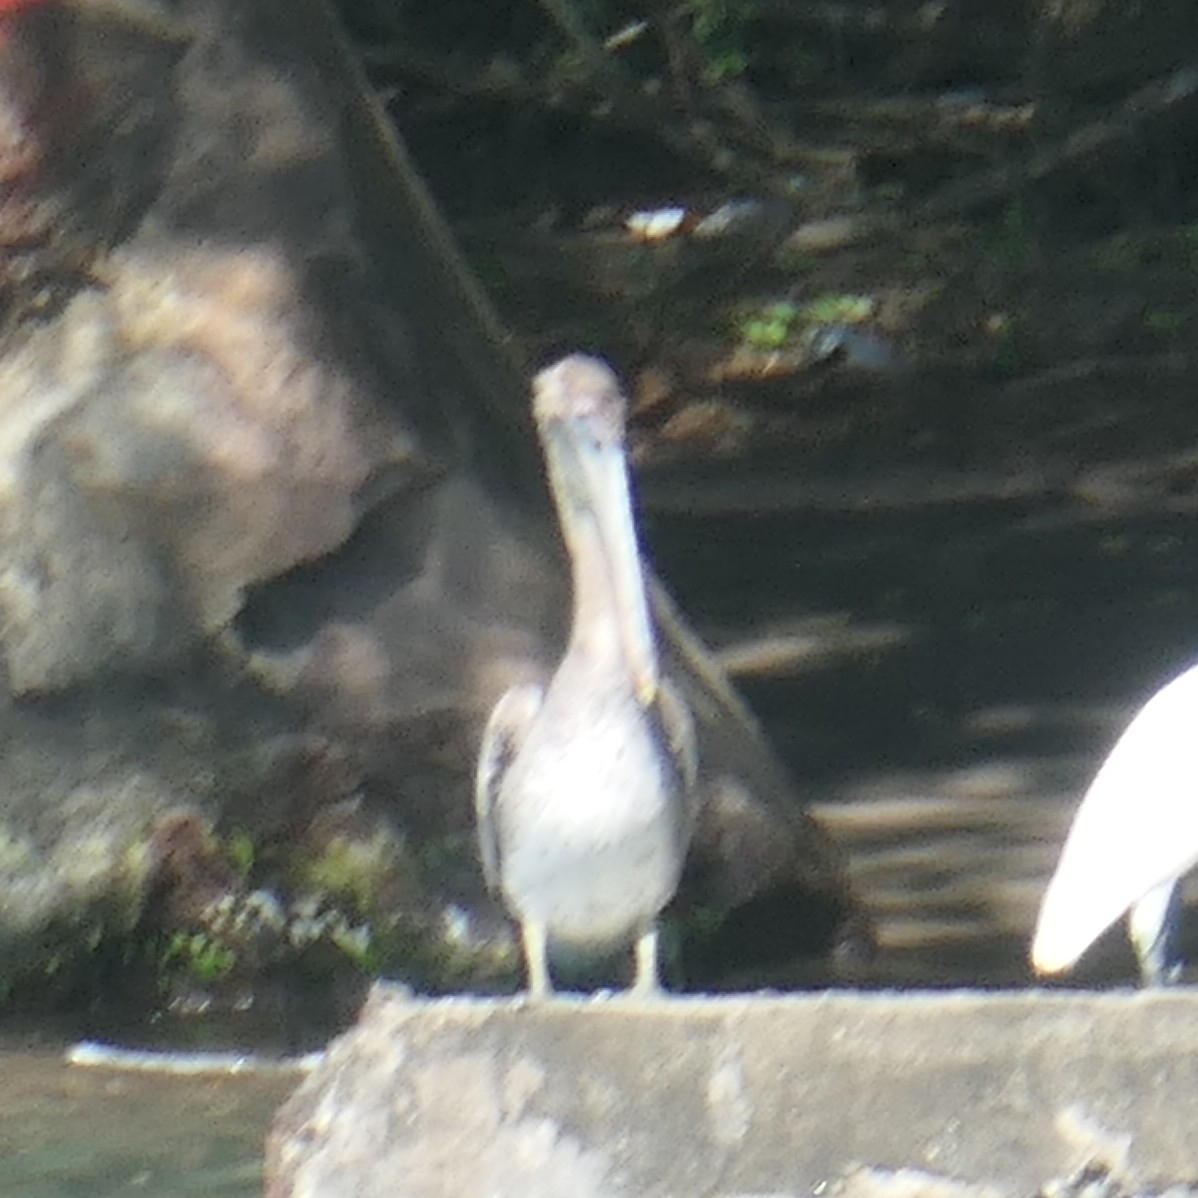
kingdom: Animalia
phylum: Chordata
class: Aves
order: Pelecaniformes
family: Pelecanidae
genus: Pelecanus
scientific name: Pelecanus occidentalis
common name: Brown pelican
